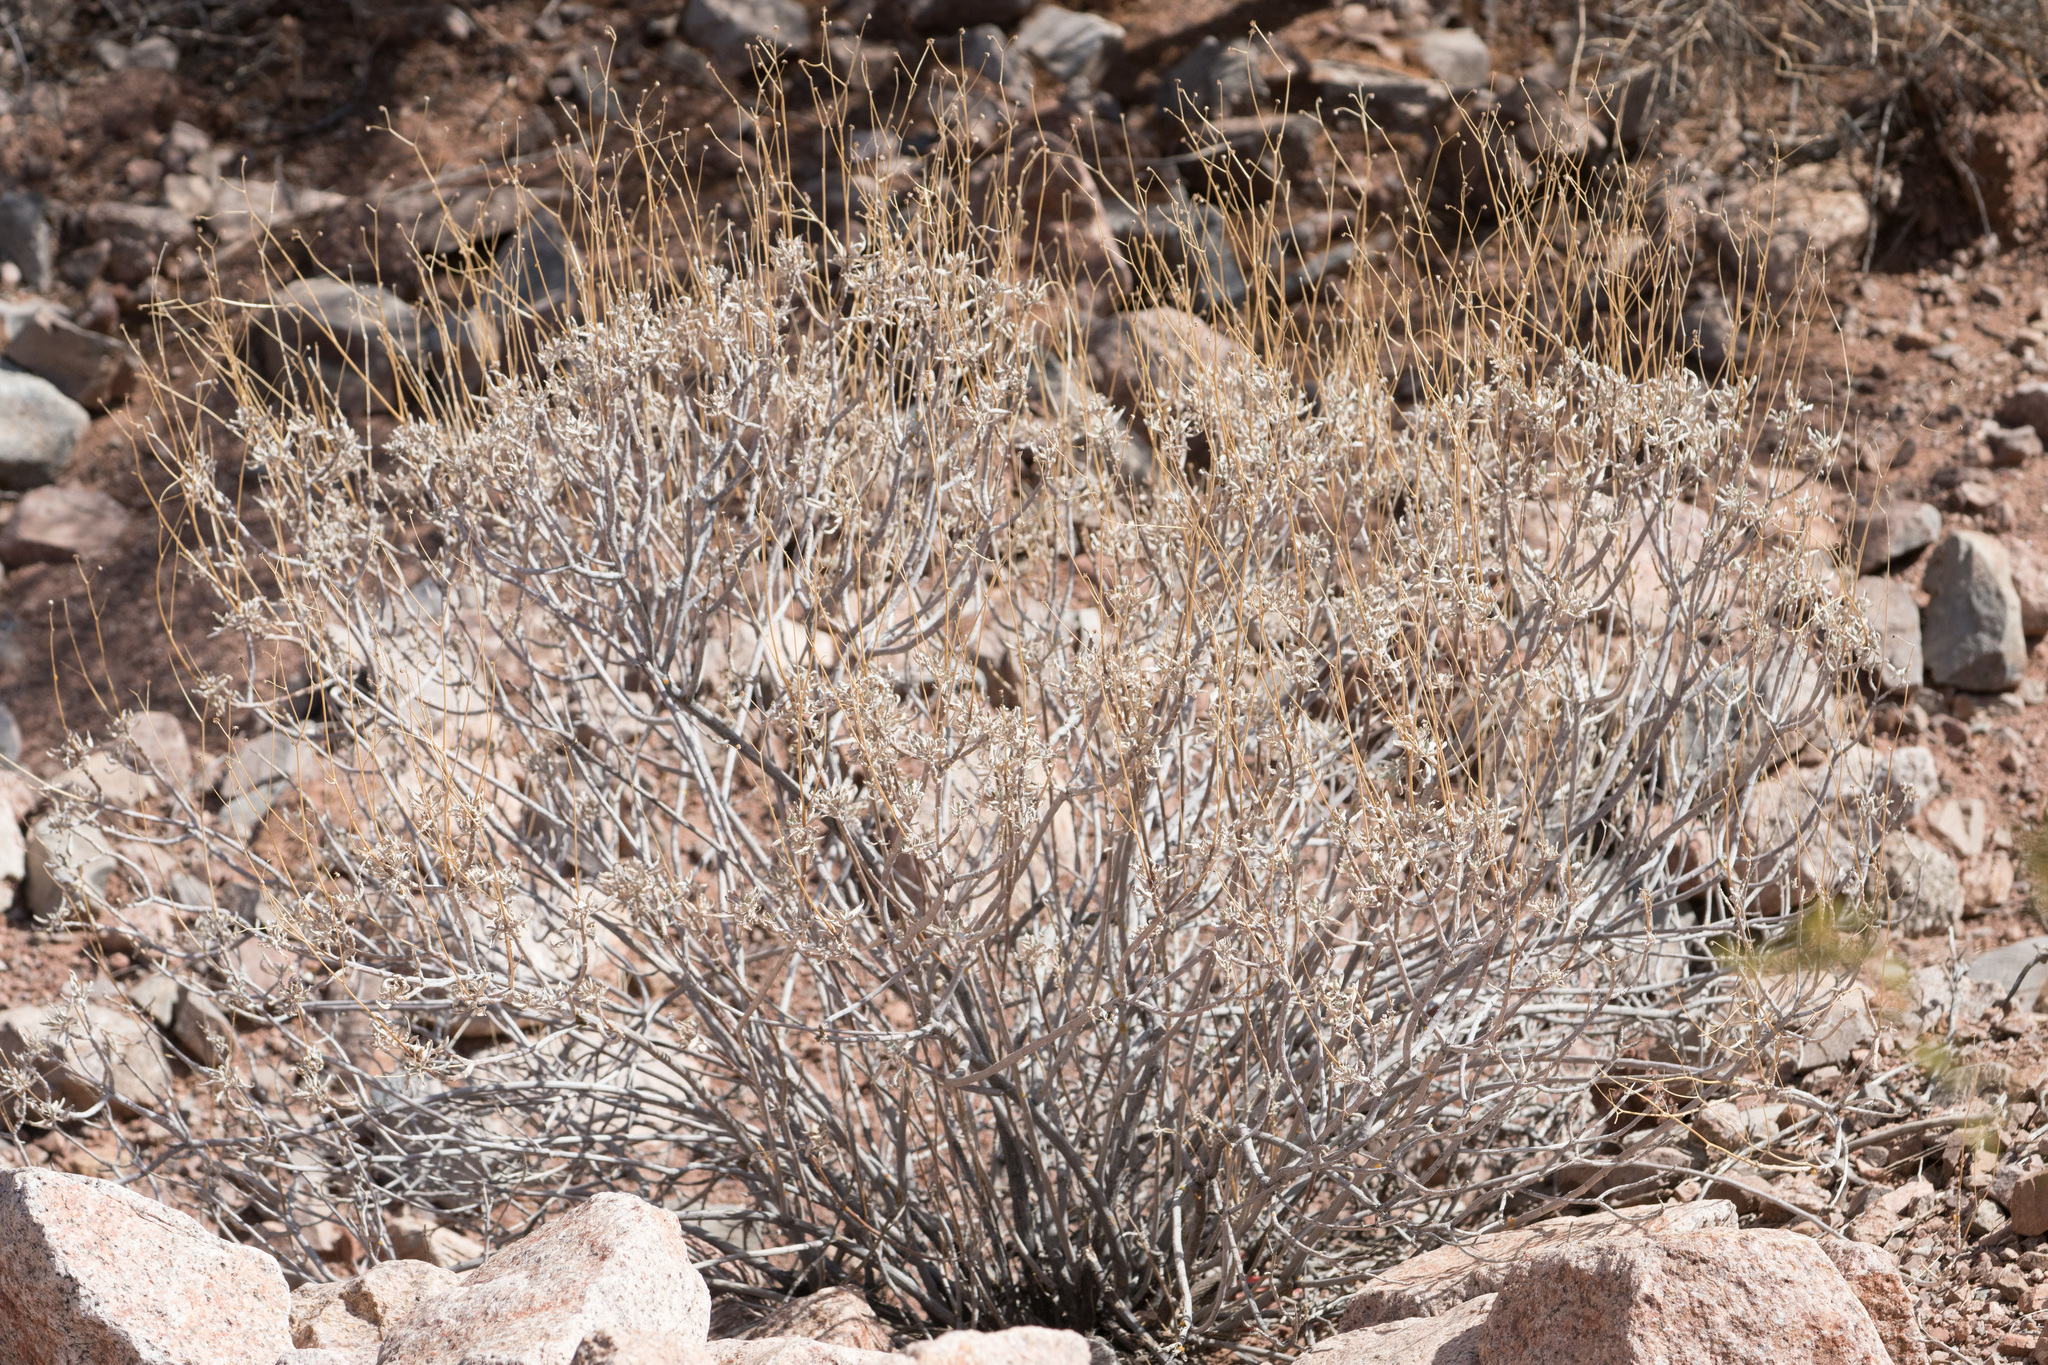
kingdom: Plantae
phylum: Tracheophyta
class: Magnoliopsida
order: Asterales
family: Asteraceae
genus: Encelia
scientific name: Encelia farinosa
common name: Brittlebush
